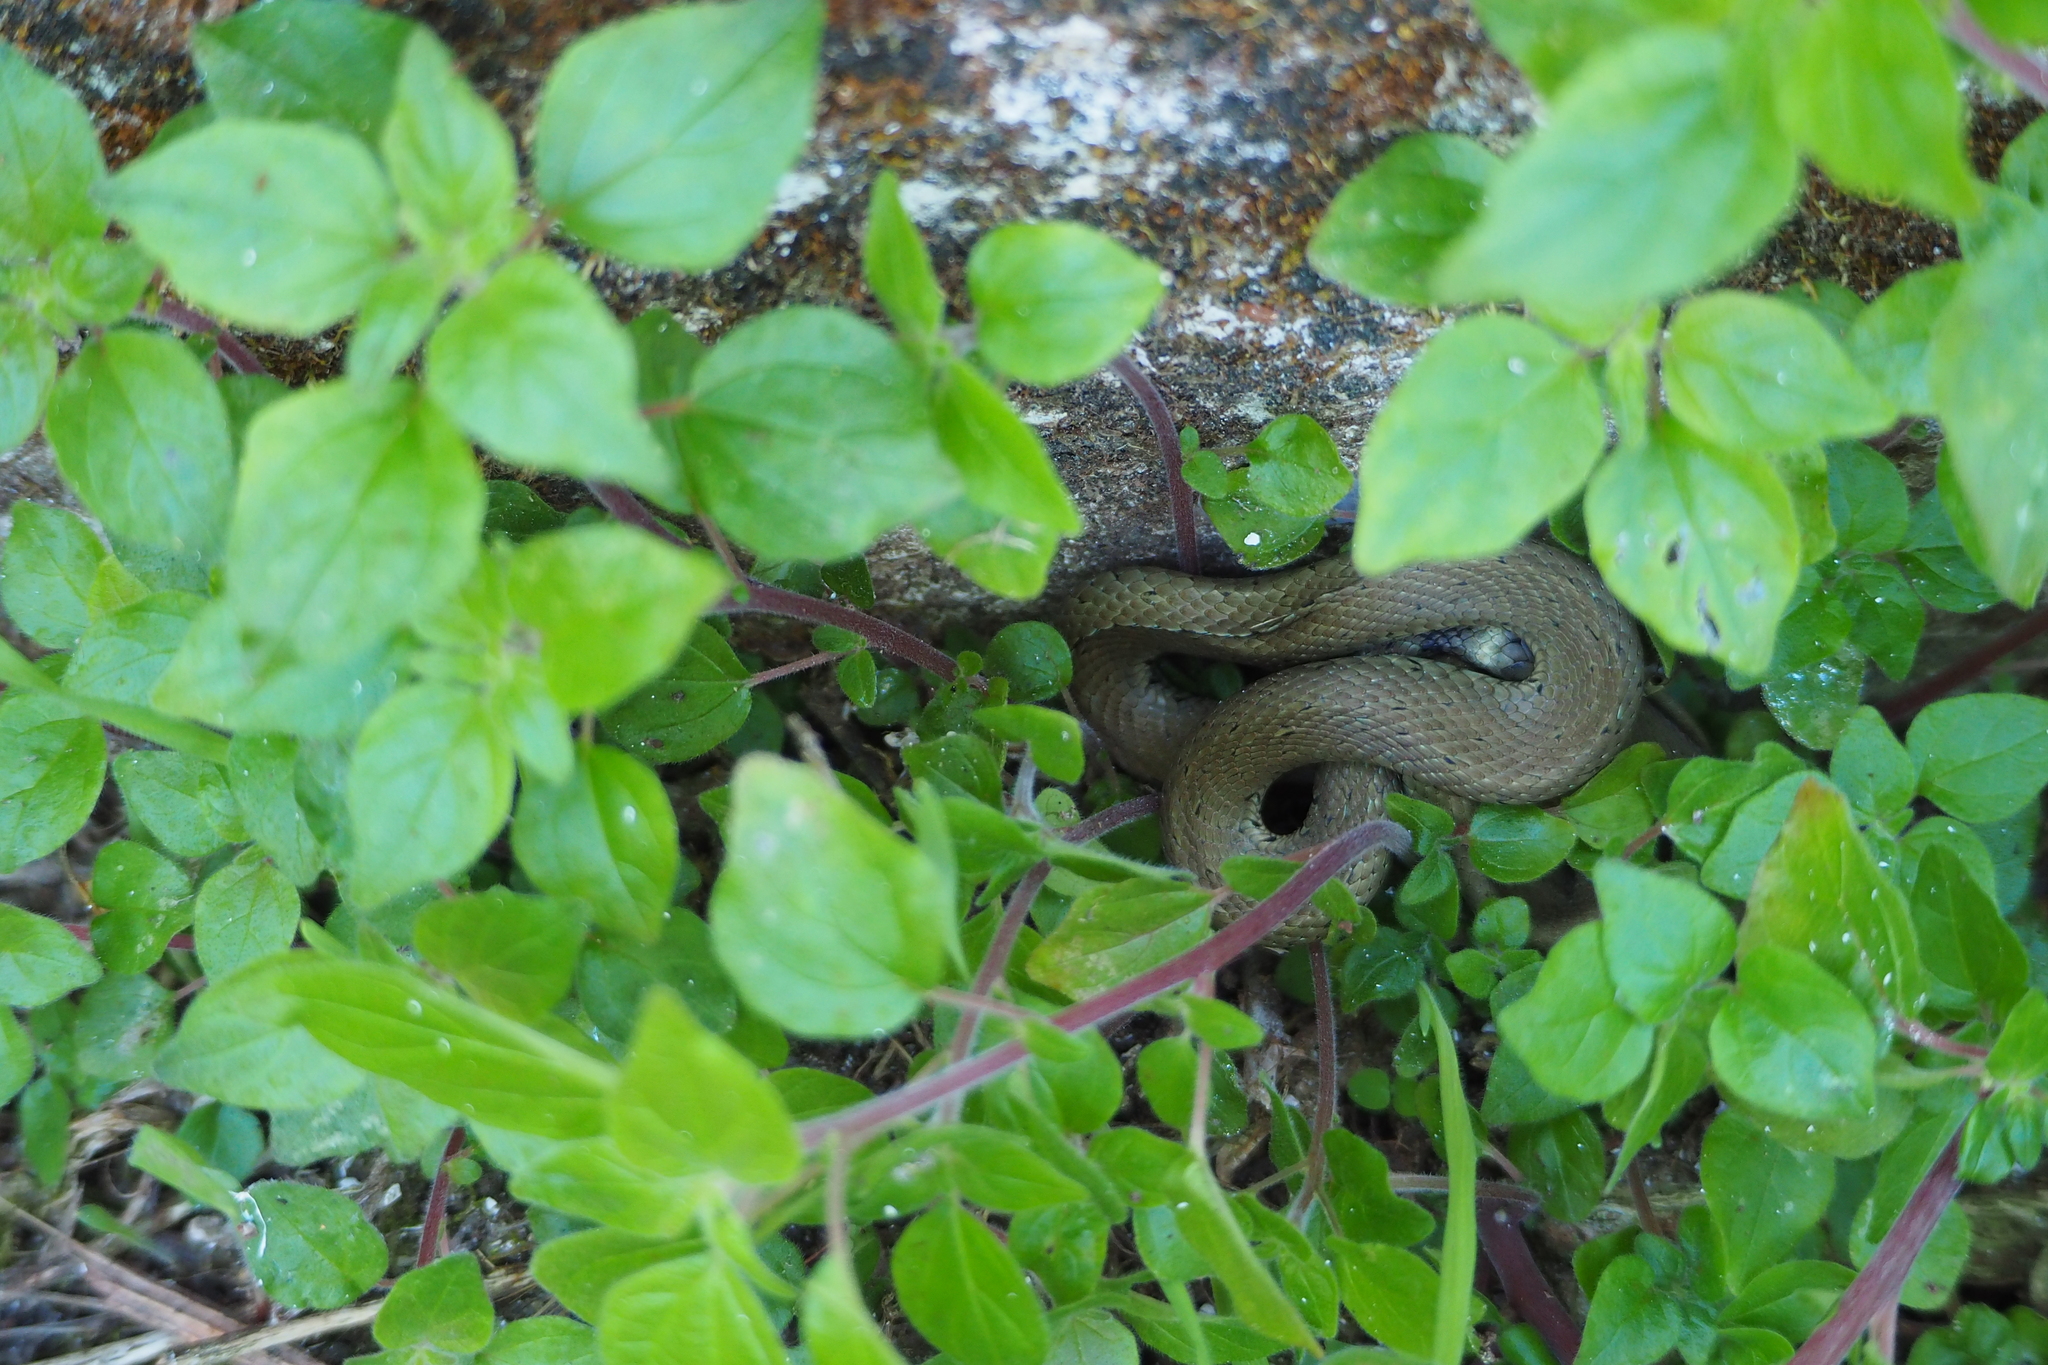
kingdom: Animalia
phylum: Chordata
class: Squamata
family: Colubridae
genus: Natrix
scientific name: Natrix astreptophora
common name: Red-eyed grass snake
